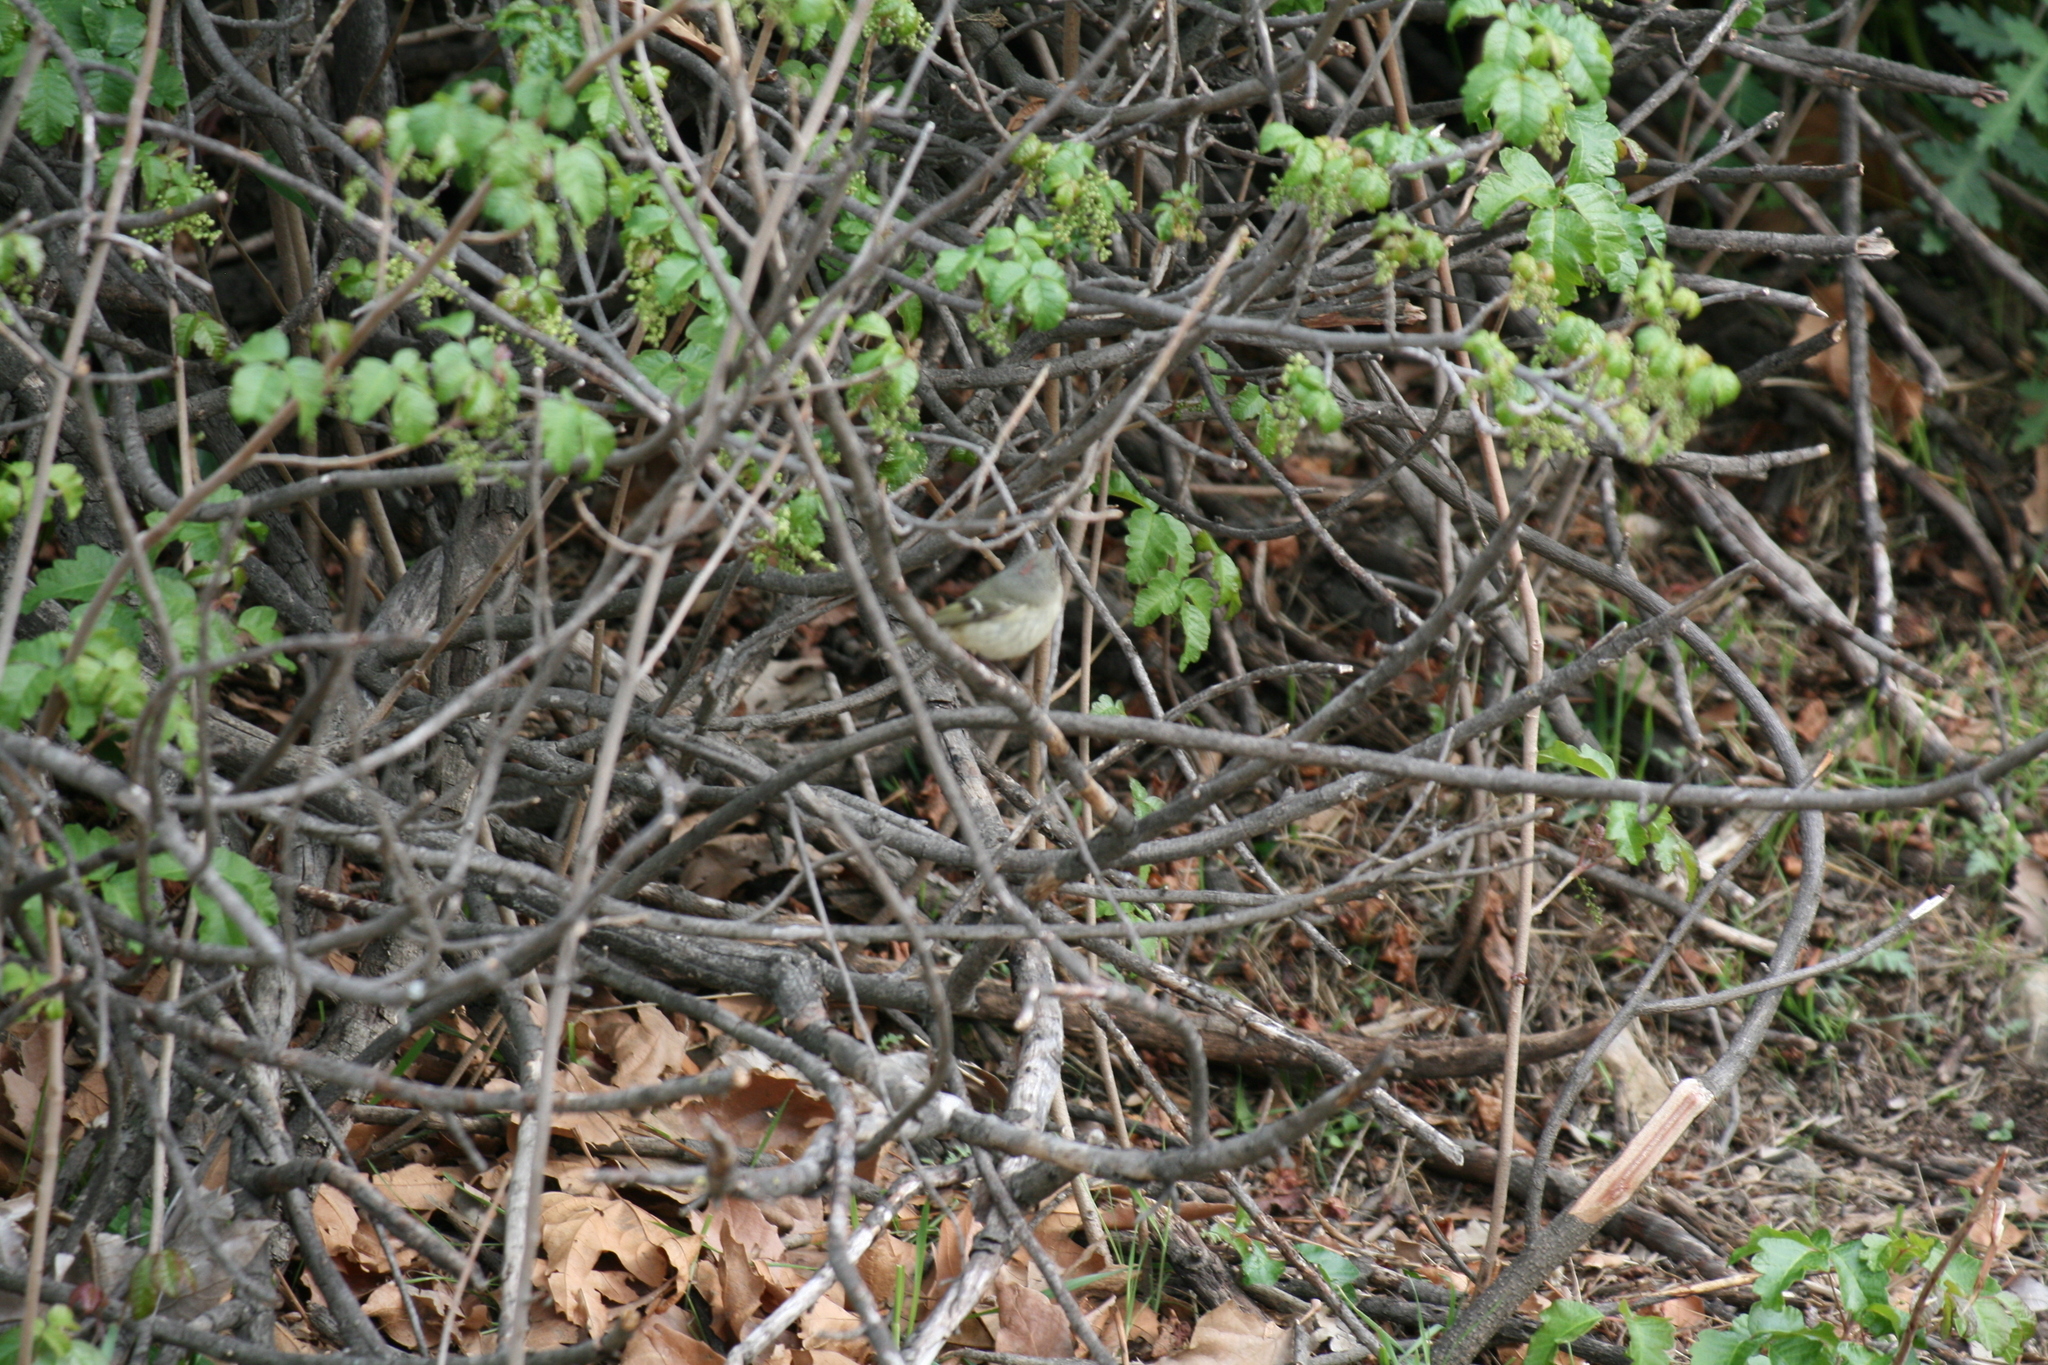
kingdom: Animalia
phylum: Chordata
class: Aves
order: Passeriformes
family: Regulidae
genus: Regulus
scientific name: Regulus calendula
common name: Ruby-crowned kinglet
